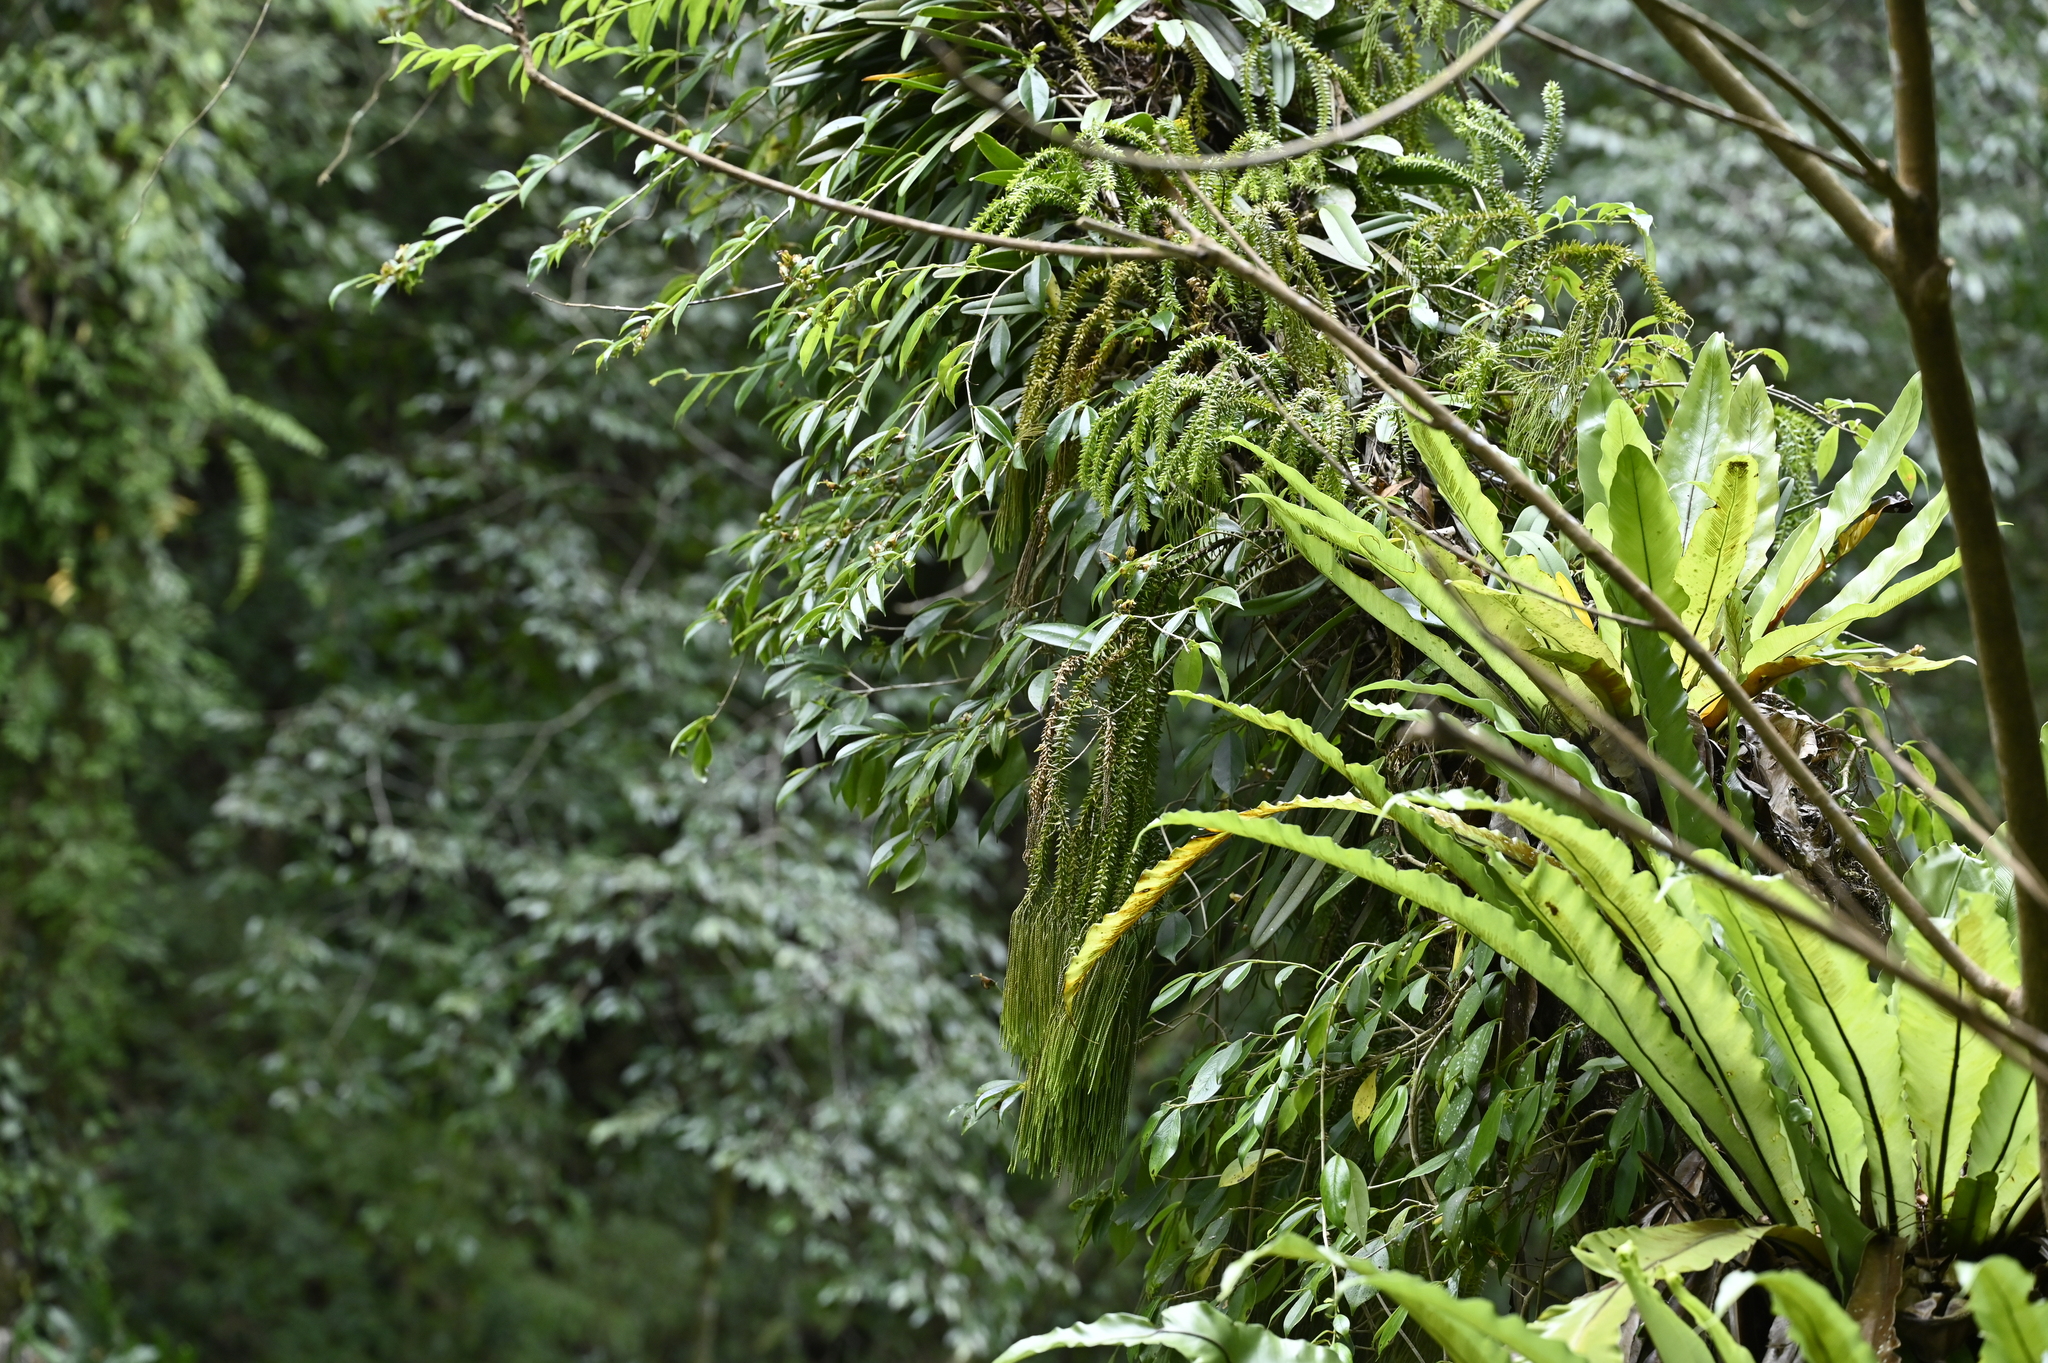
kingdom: Plantae
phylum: Tracheophyta
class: Lycopodiopsida
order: Lycopodiales
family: Lycopodiaceae
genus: Phlegmariurus
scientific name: Phlegmariurus phlegmaria
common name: Coarse tassel-fern
